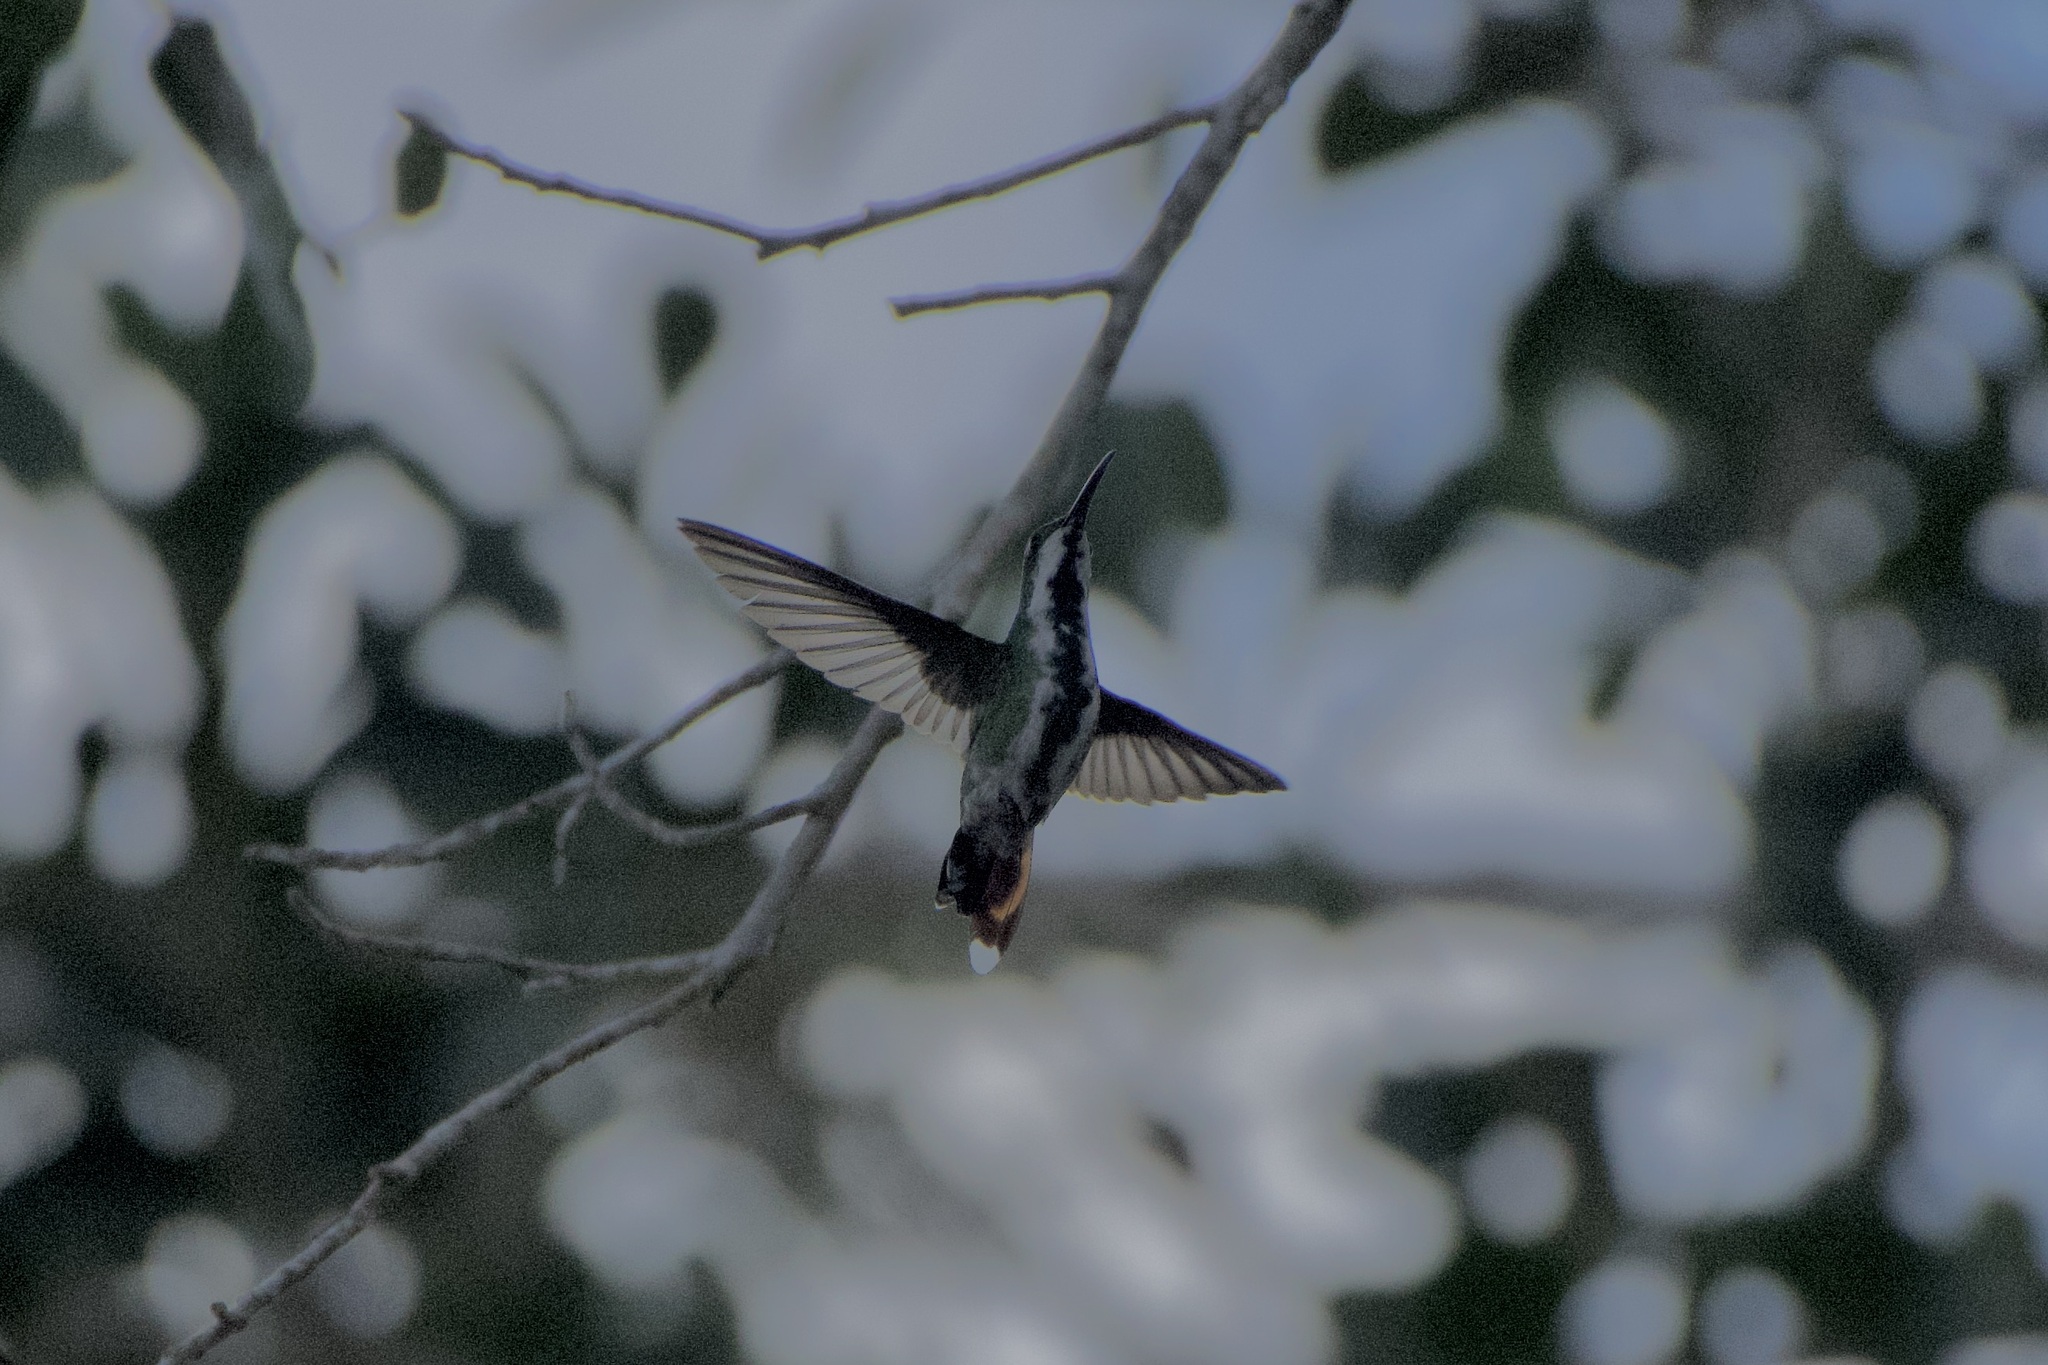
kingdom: Animalia
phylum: Chordata
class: Aves
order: Apodiformes
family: Trochilidae
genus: Anthracothorax
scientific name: Anthracothorax prevostii
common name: Green-breasted mango
